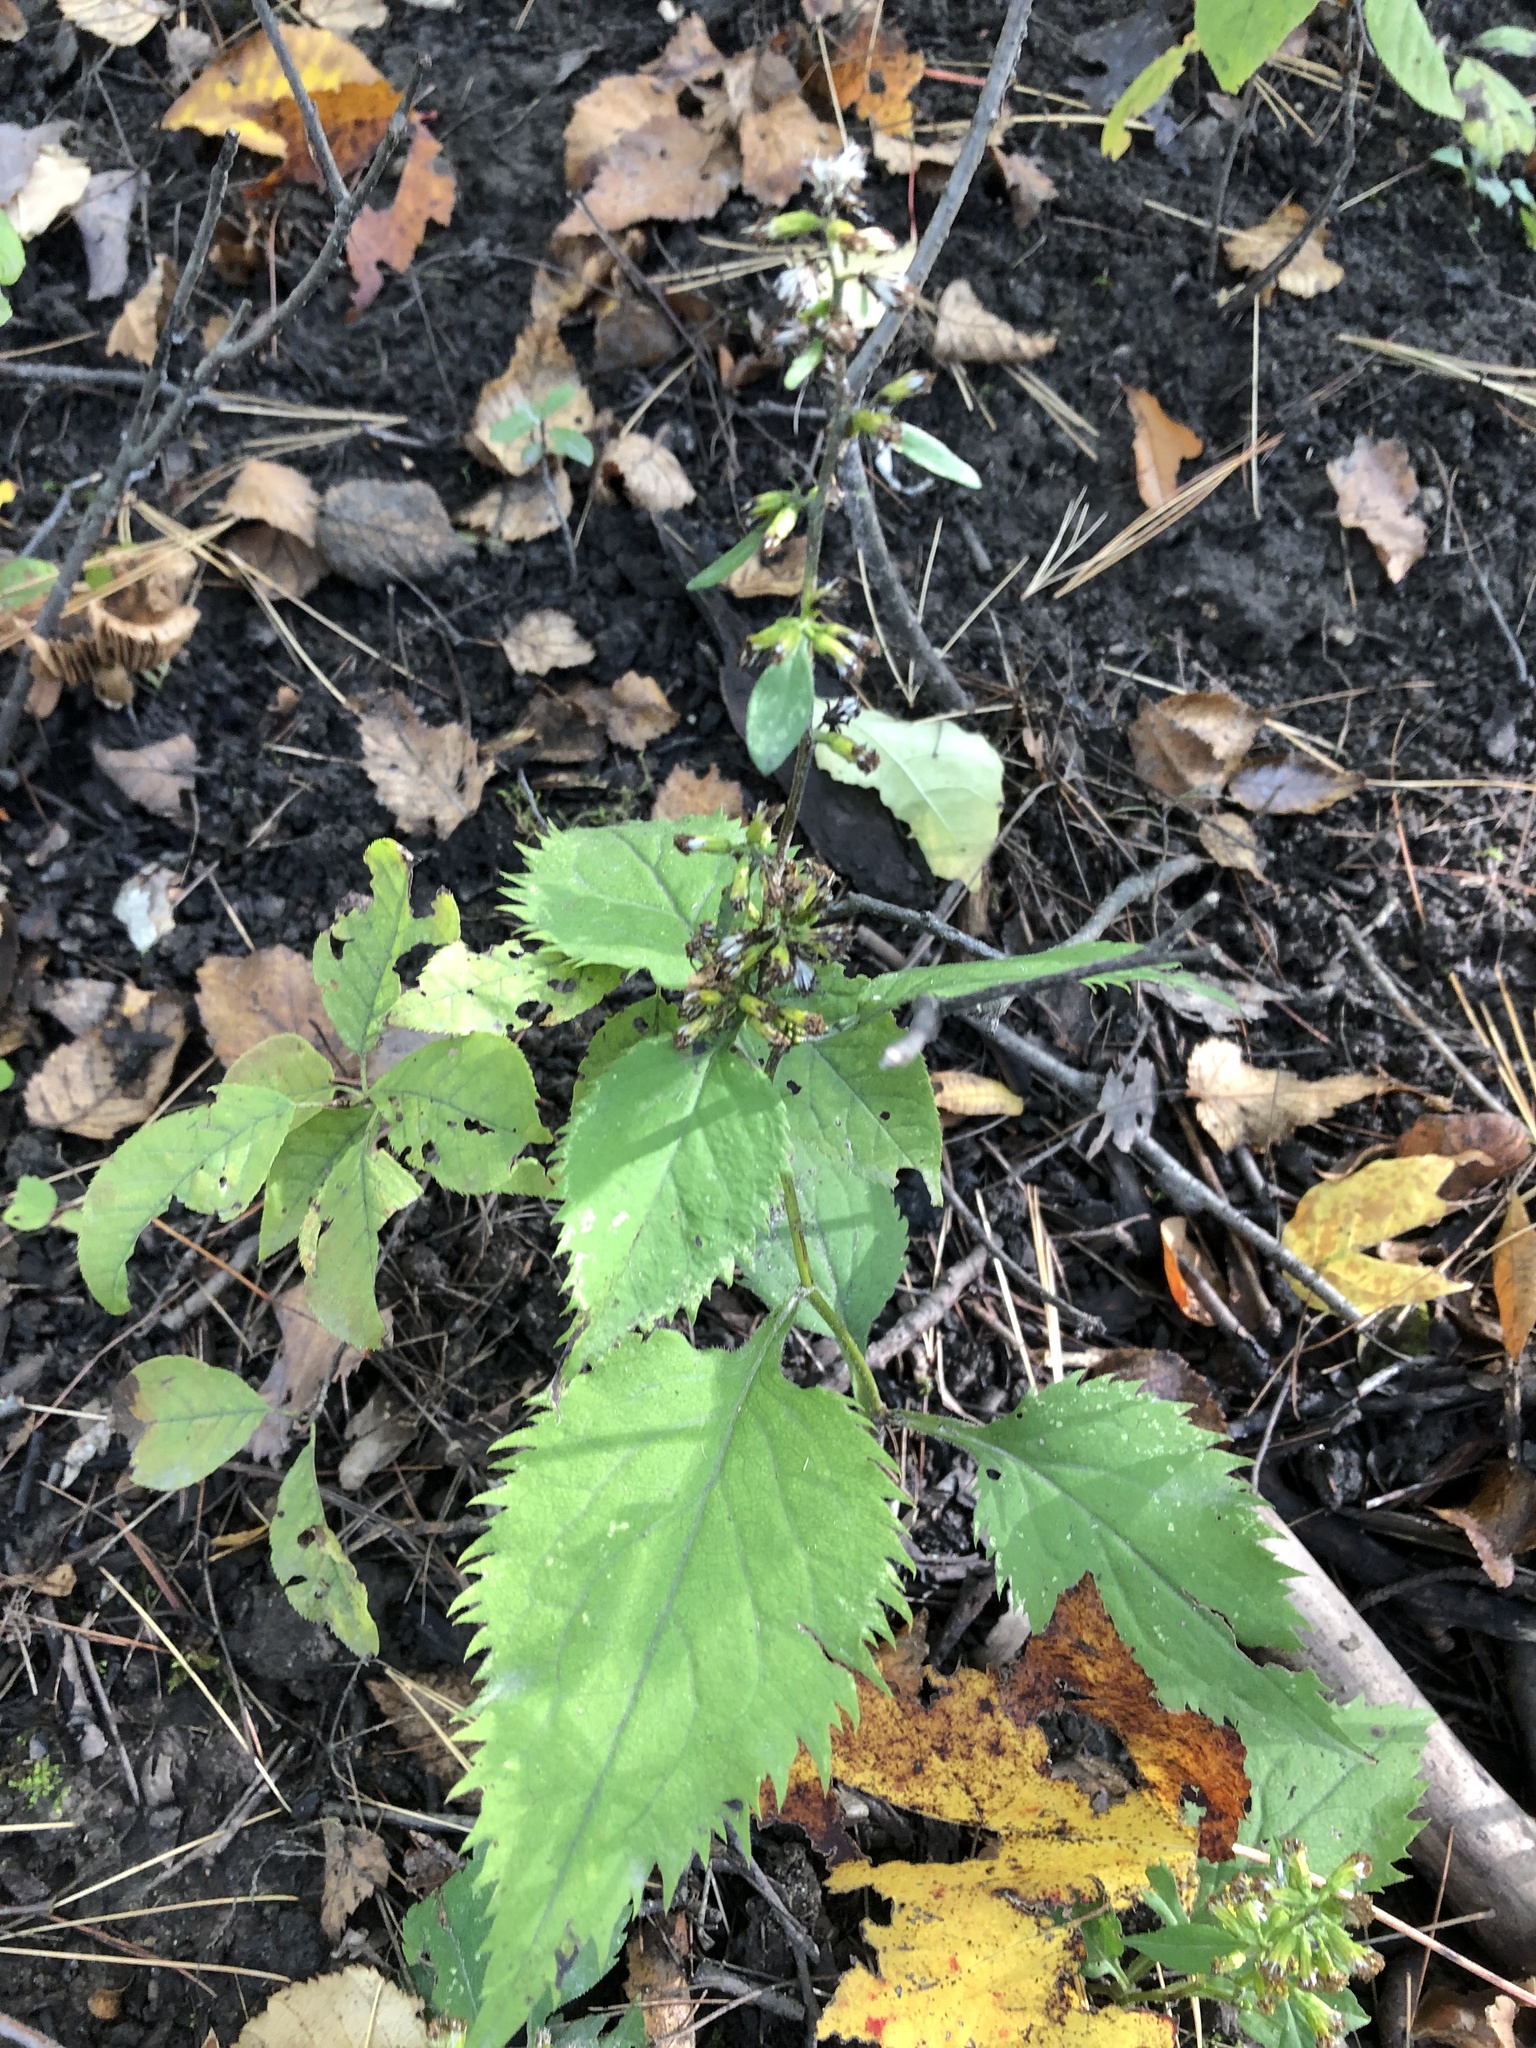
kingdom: Plantae
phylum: Tracheophyta
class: Magnoliopsida
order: Asterales
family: Asteraceae
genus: Solidago
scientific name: Solidago flexicaulis
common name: Zig-zag goldenrod
